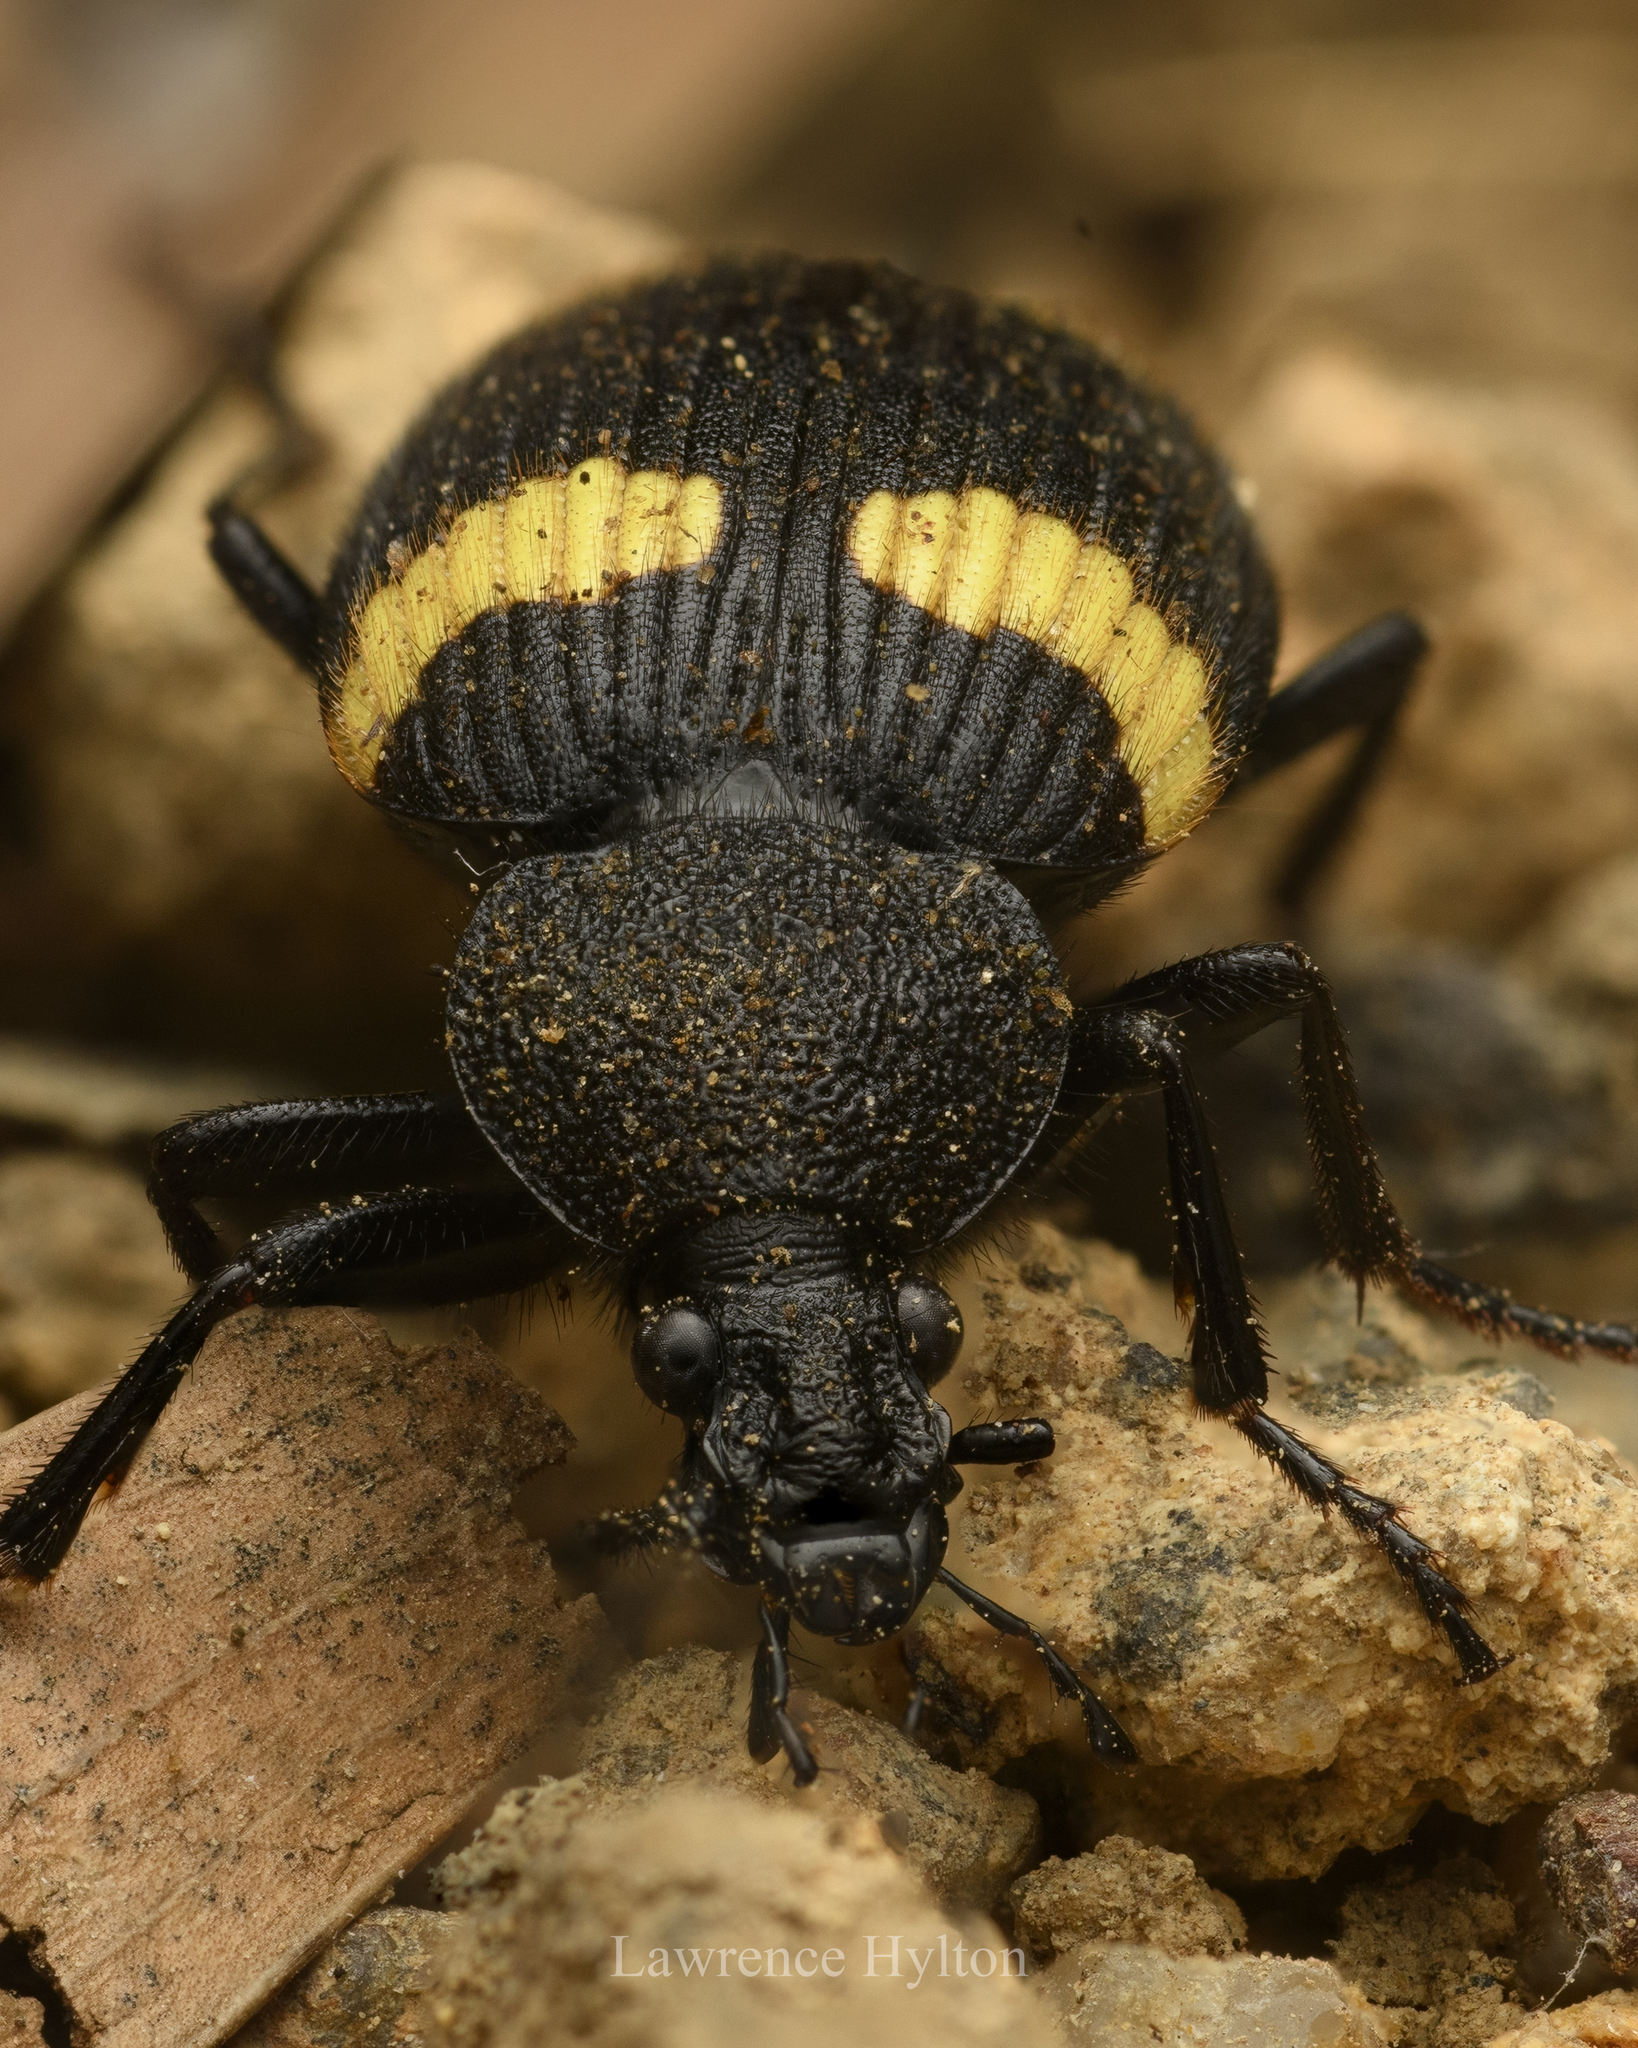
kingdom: Animalia
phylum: Arthropoda
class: Insecta
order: Coleoptera
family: Carabidae
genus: Craspedophorus
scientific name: Craspedophorus mandarinus
